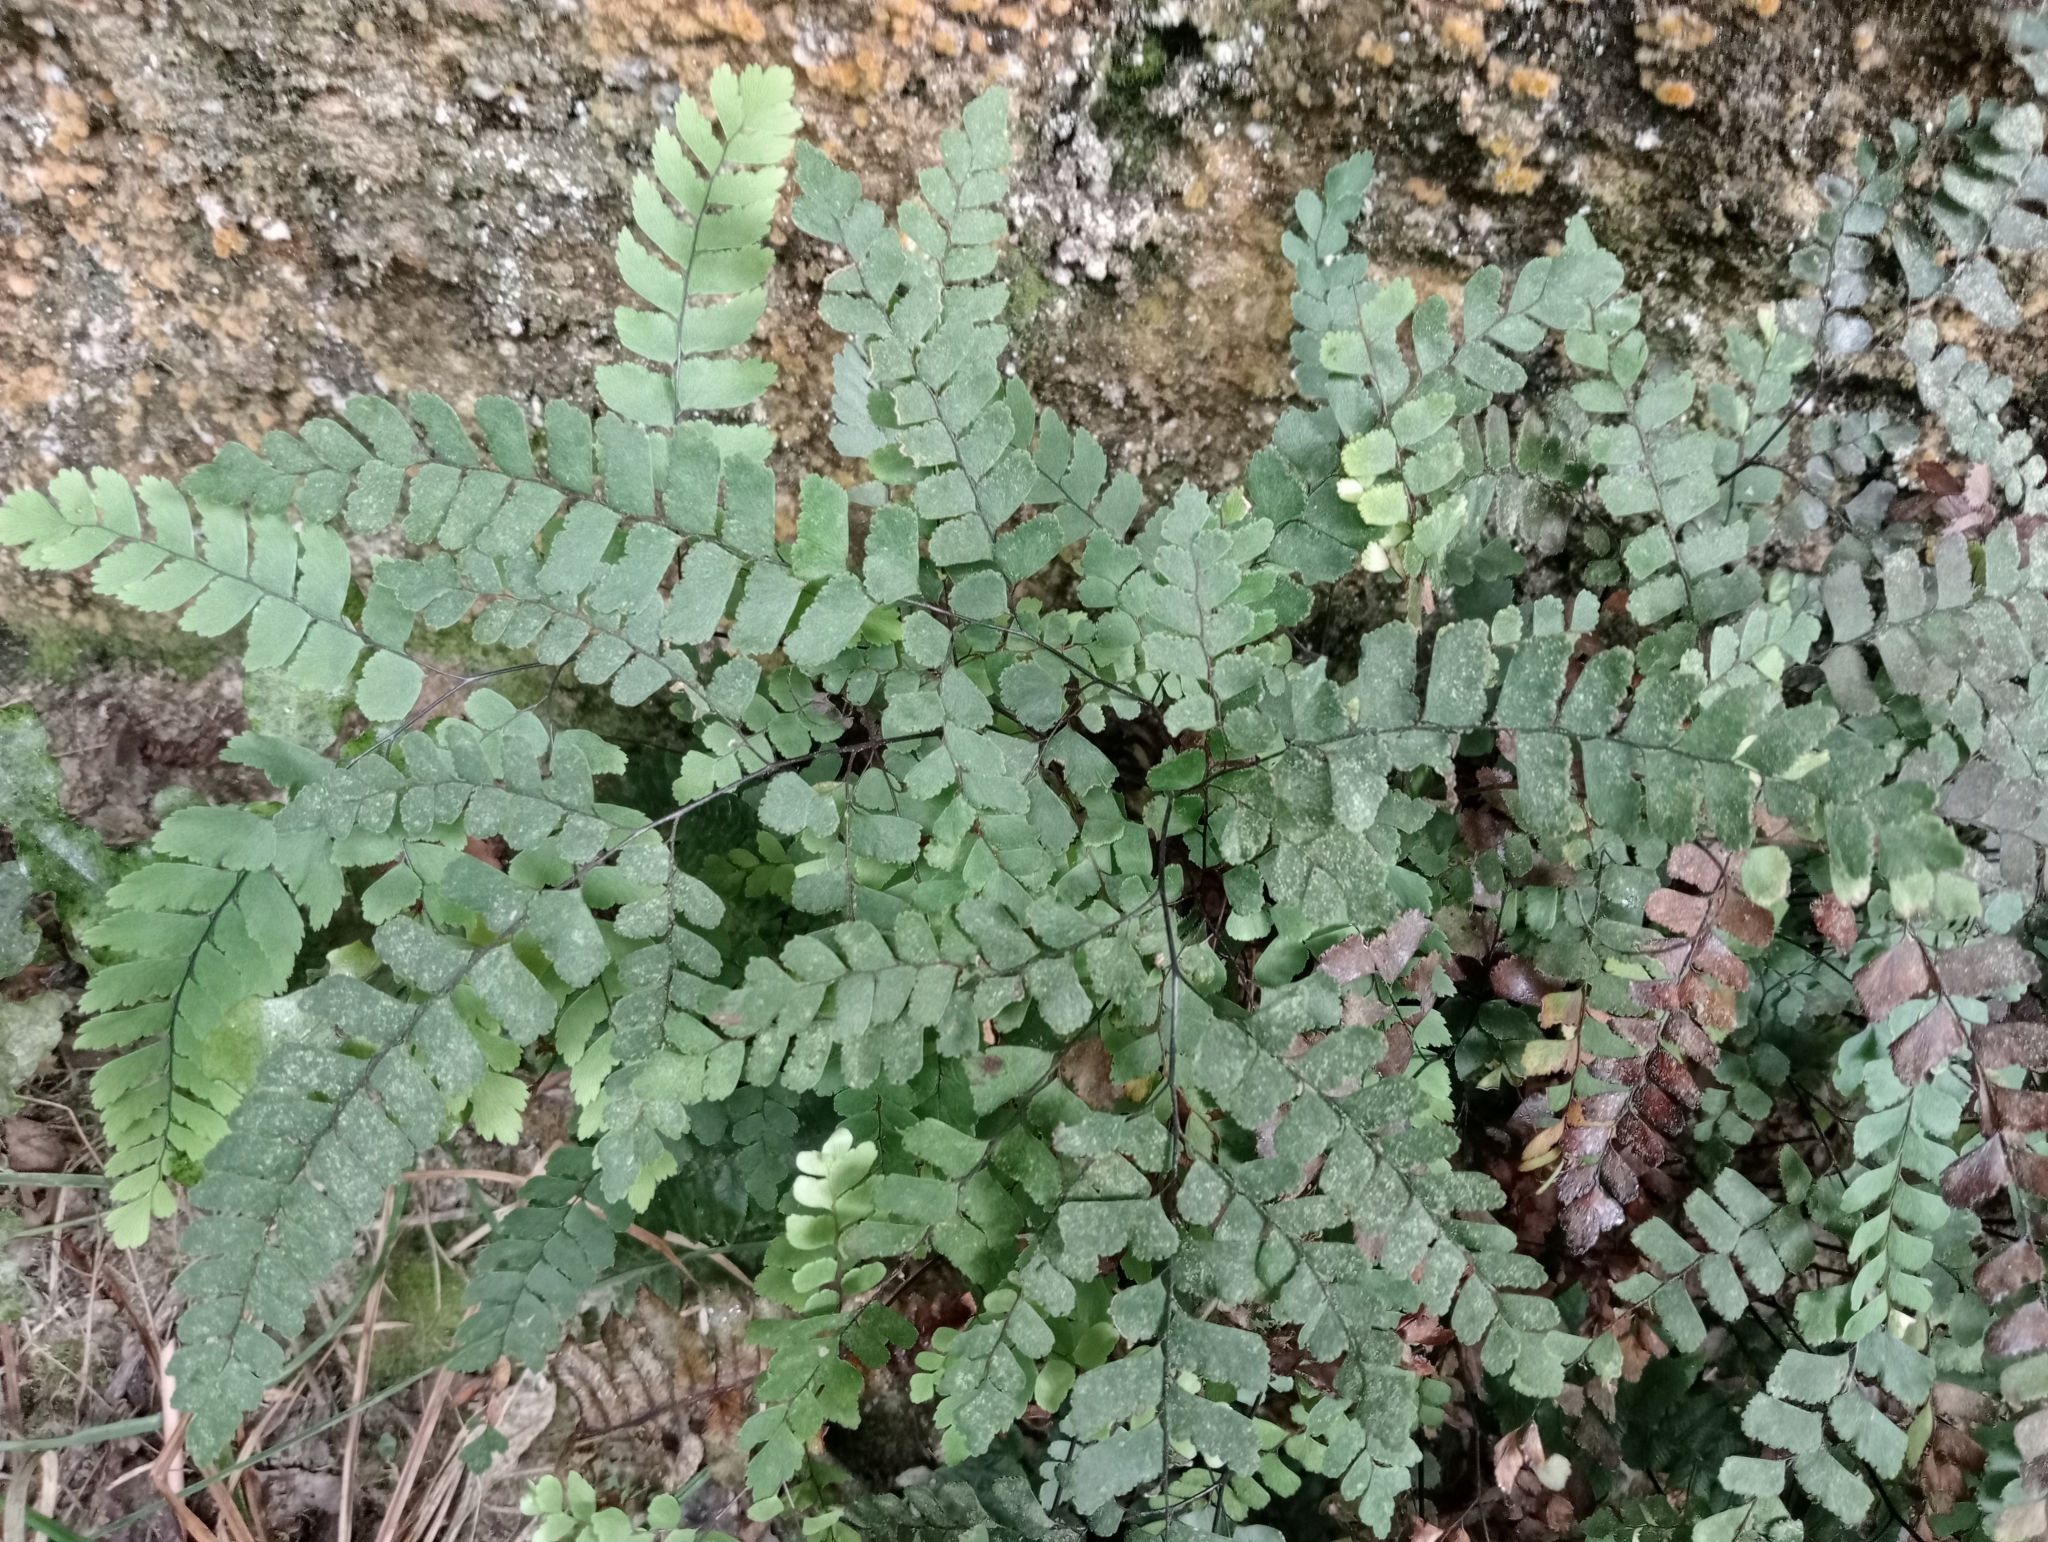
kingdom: Plantae
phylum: Tracheophyta
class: Polypodiopsida
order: Polypodiales
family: Pteridaceae
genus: Adiantum
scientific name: Adiantum cunninghamii
